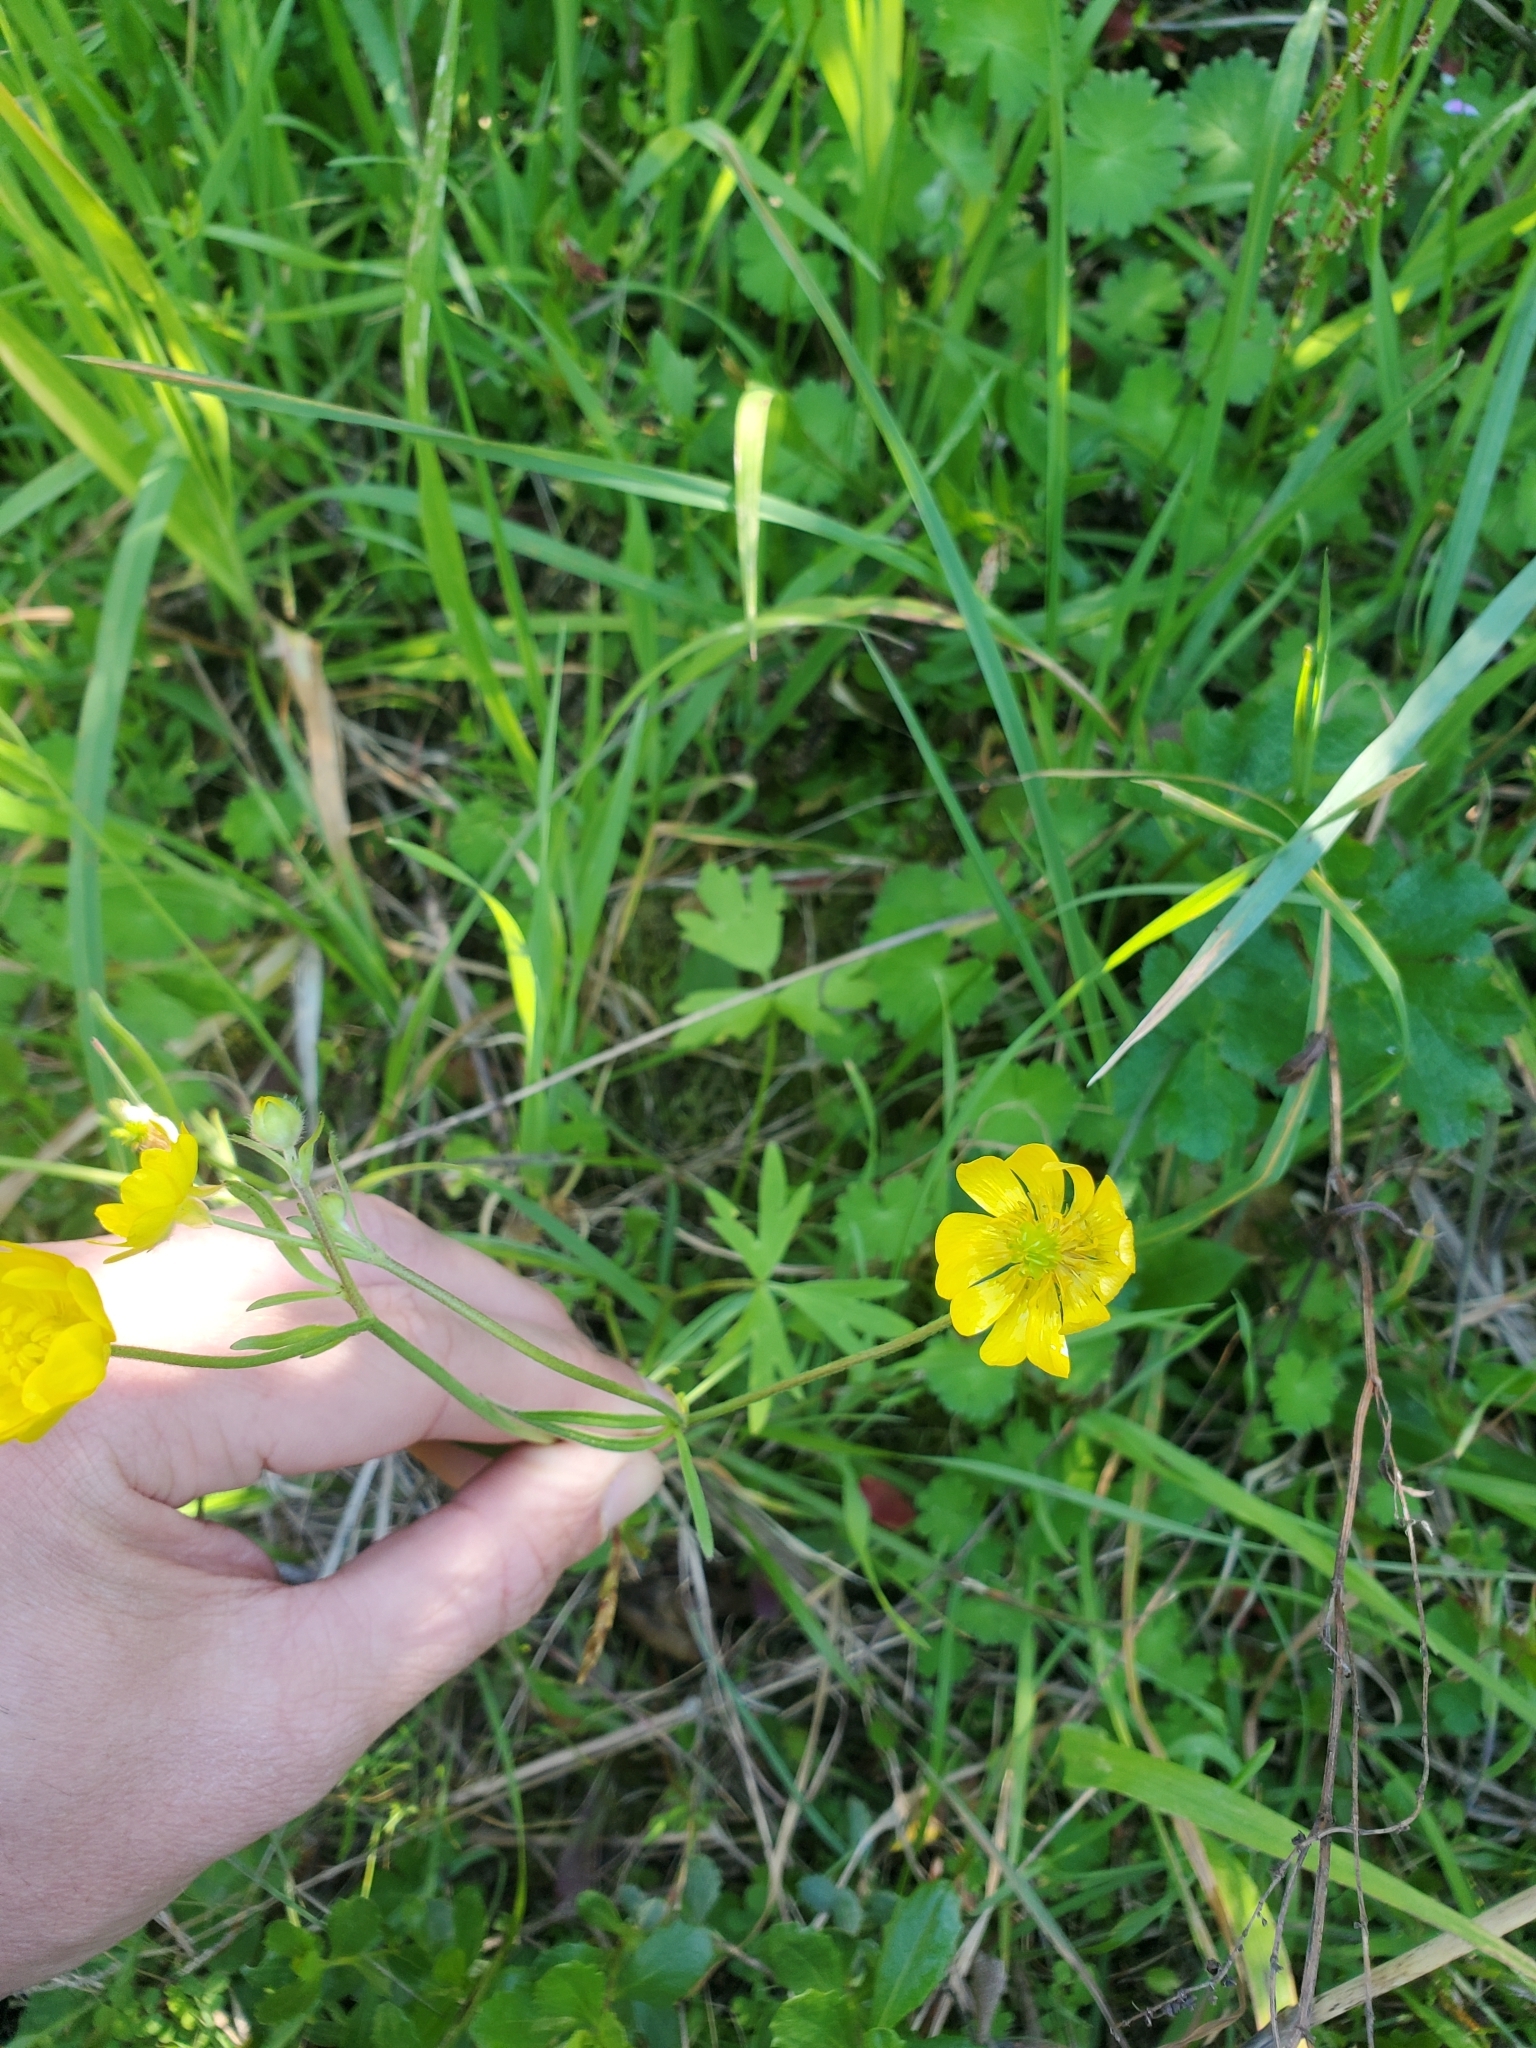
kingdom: Plantae
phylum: Tracheophyta
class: Magnoliopsida
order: Ranunculales
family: Ranunculaceae
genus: Ranunculus
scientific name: Ranunculus californicus
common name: California buttercup
